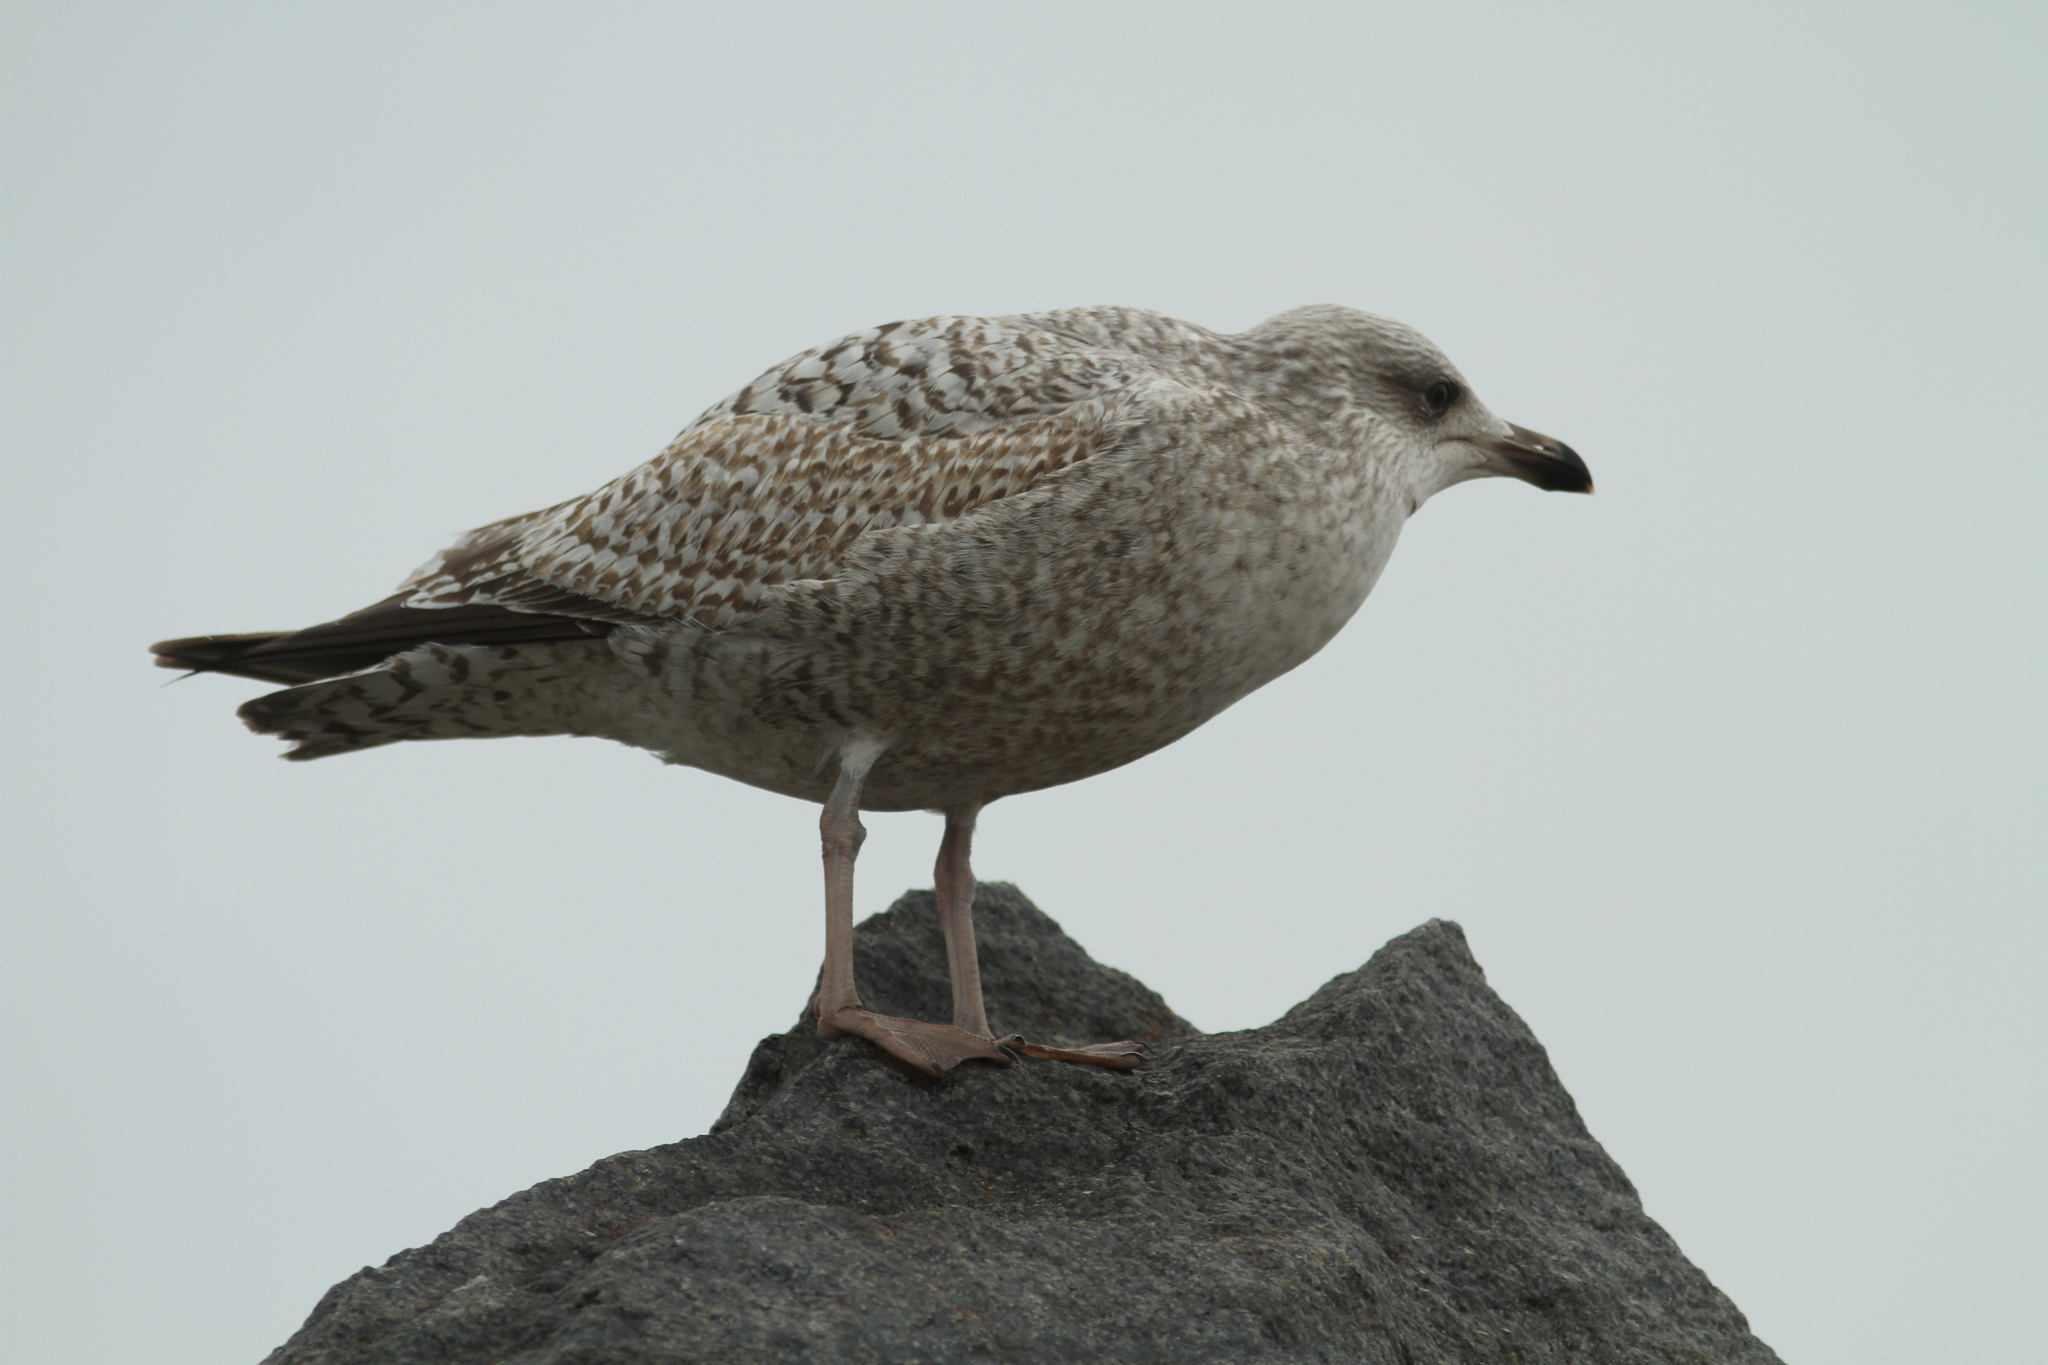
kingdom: Animalia
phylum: Chordata
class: Aves
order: Charadriiformes
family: Laridae
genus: Larus
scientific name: Larus argentatus
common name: Herring gull
